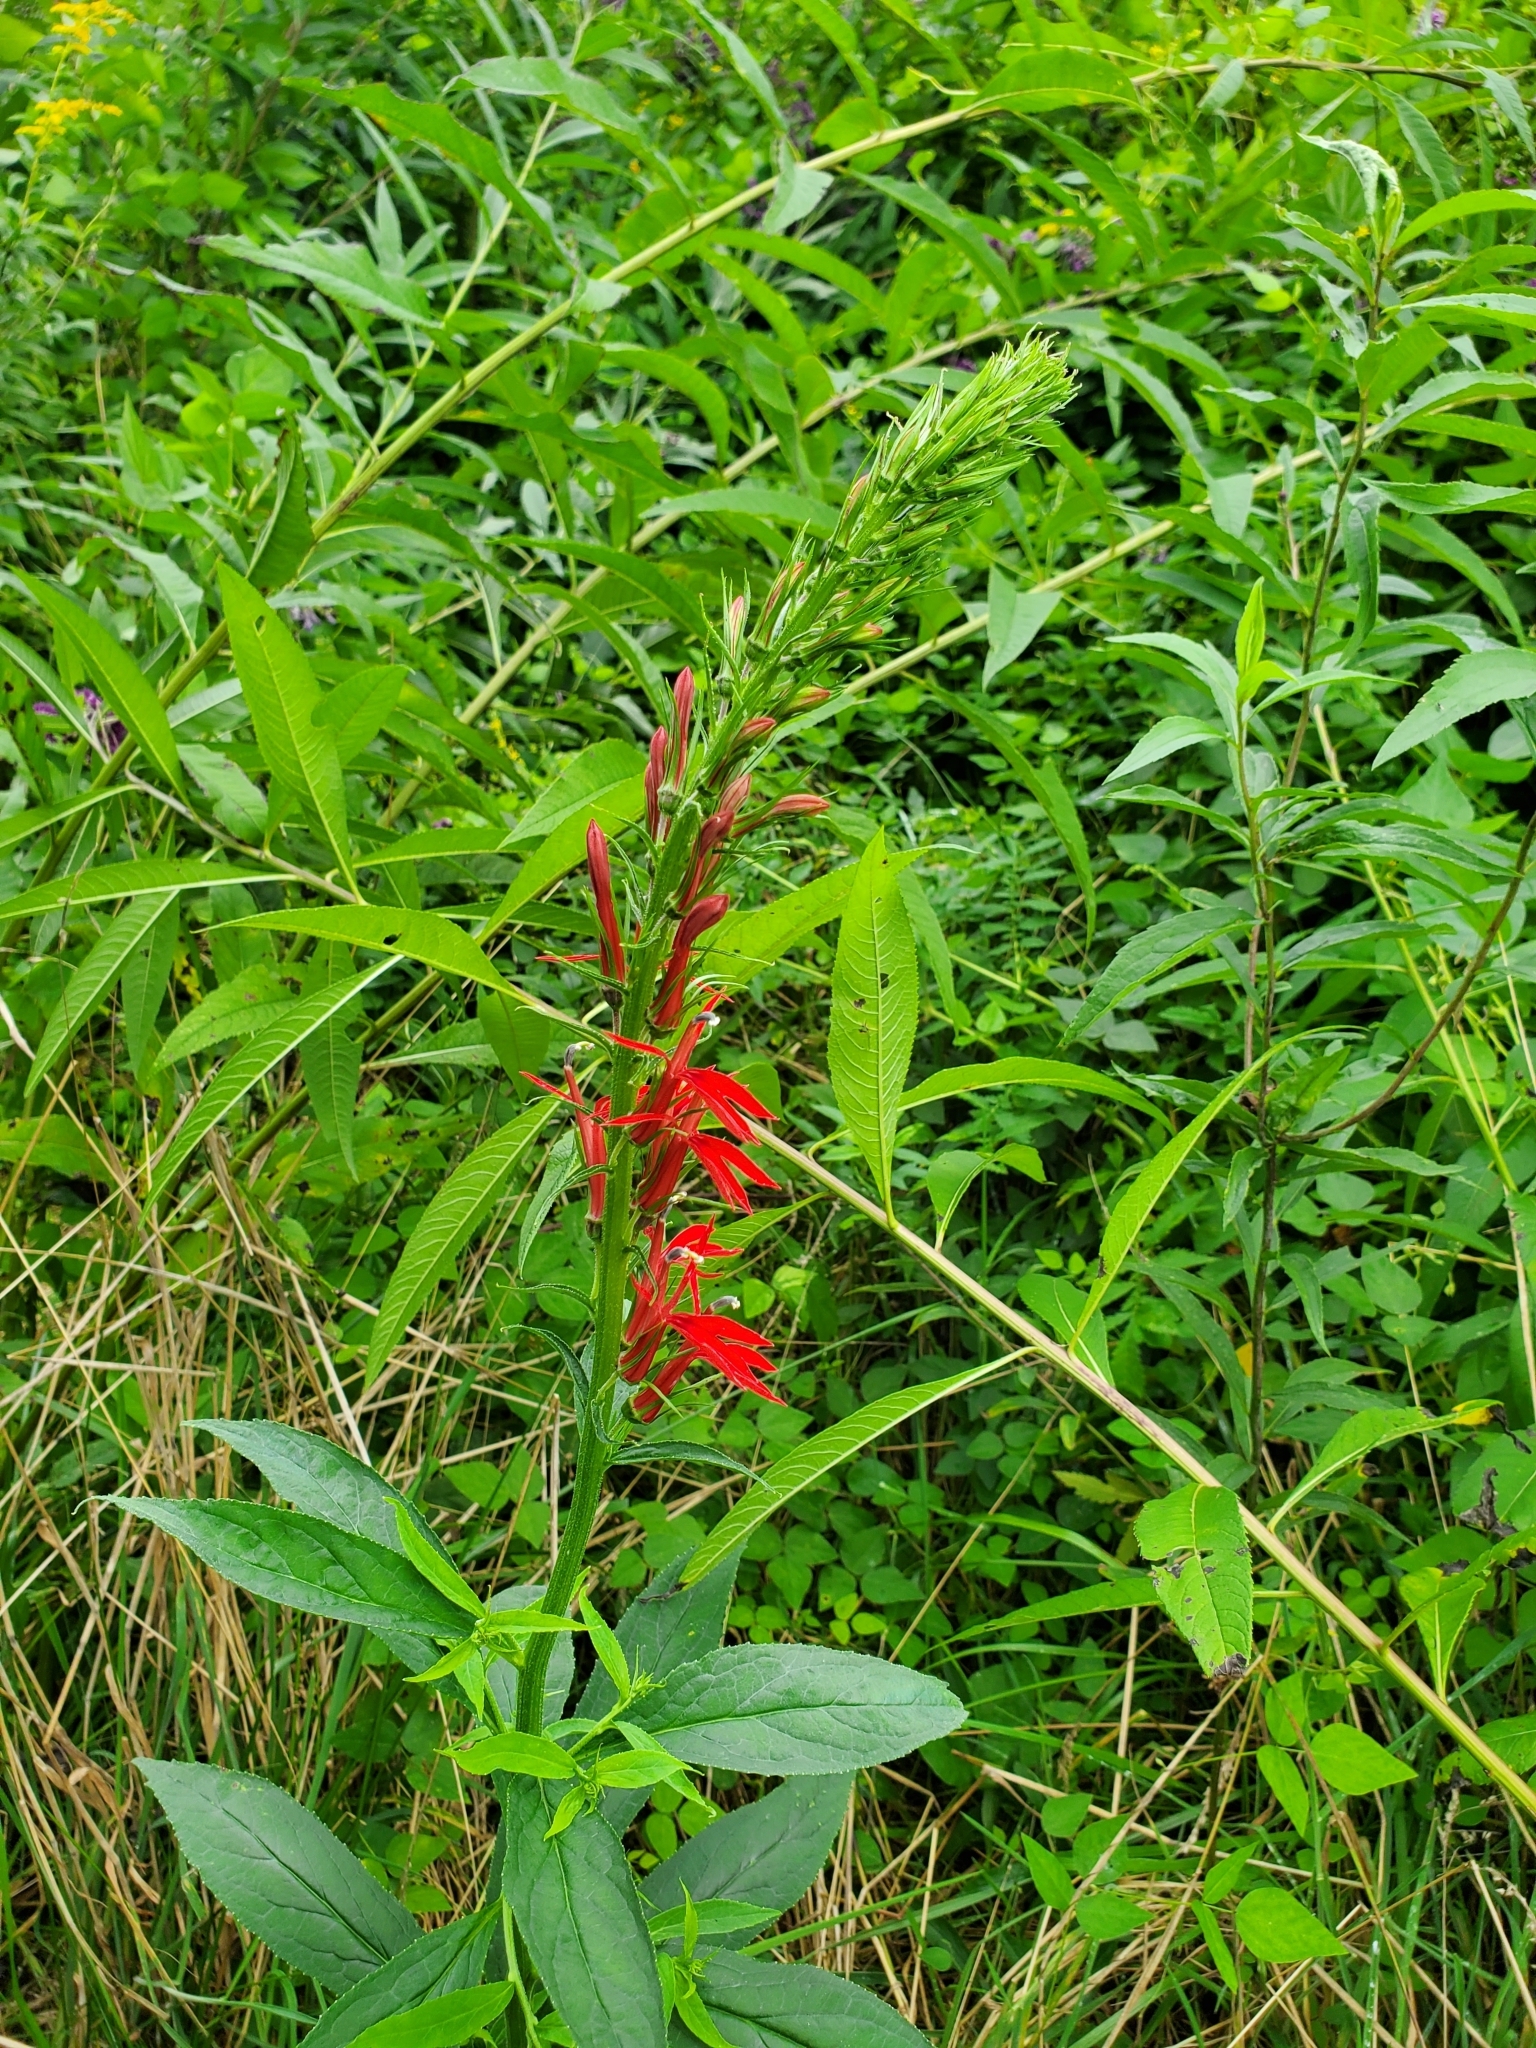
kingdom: Plantae
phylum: Tracheophyta
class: Magnoliopsida
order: Asterales
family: Campanulaceae
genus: Lobelia
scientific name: Lobelia cardinalis
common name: Cardinal flower
